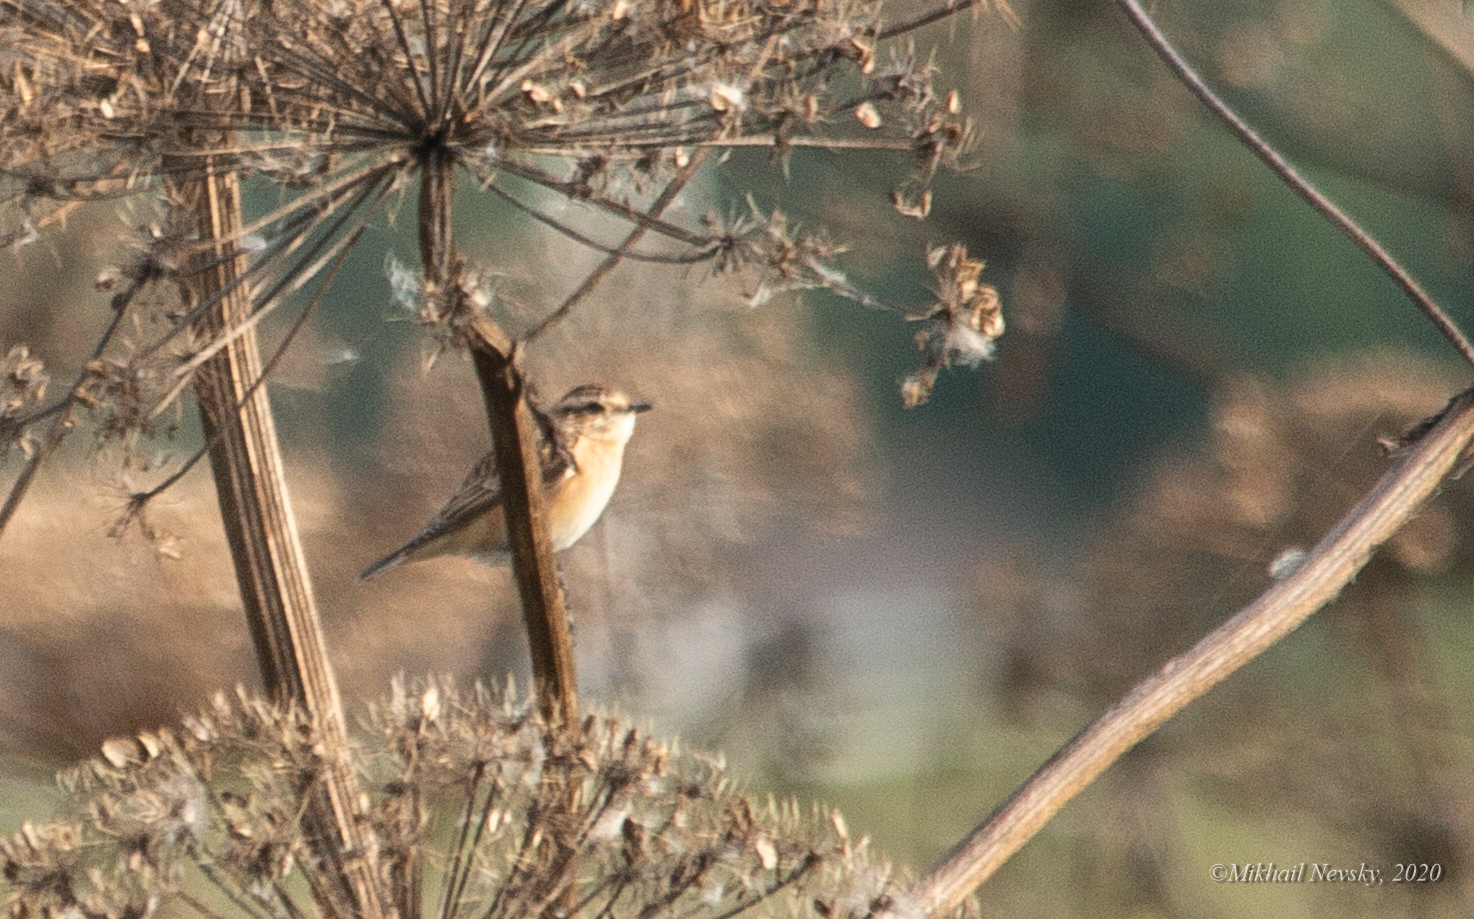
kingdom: Animalia
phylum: Chordata
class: Aves
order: Passeriformes
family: Muscicapidae
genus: Saxicola
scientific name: Saxicola rubetra
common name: Whinchat
